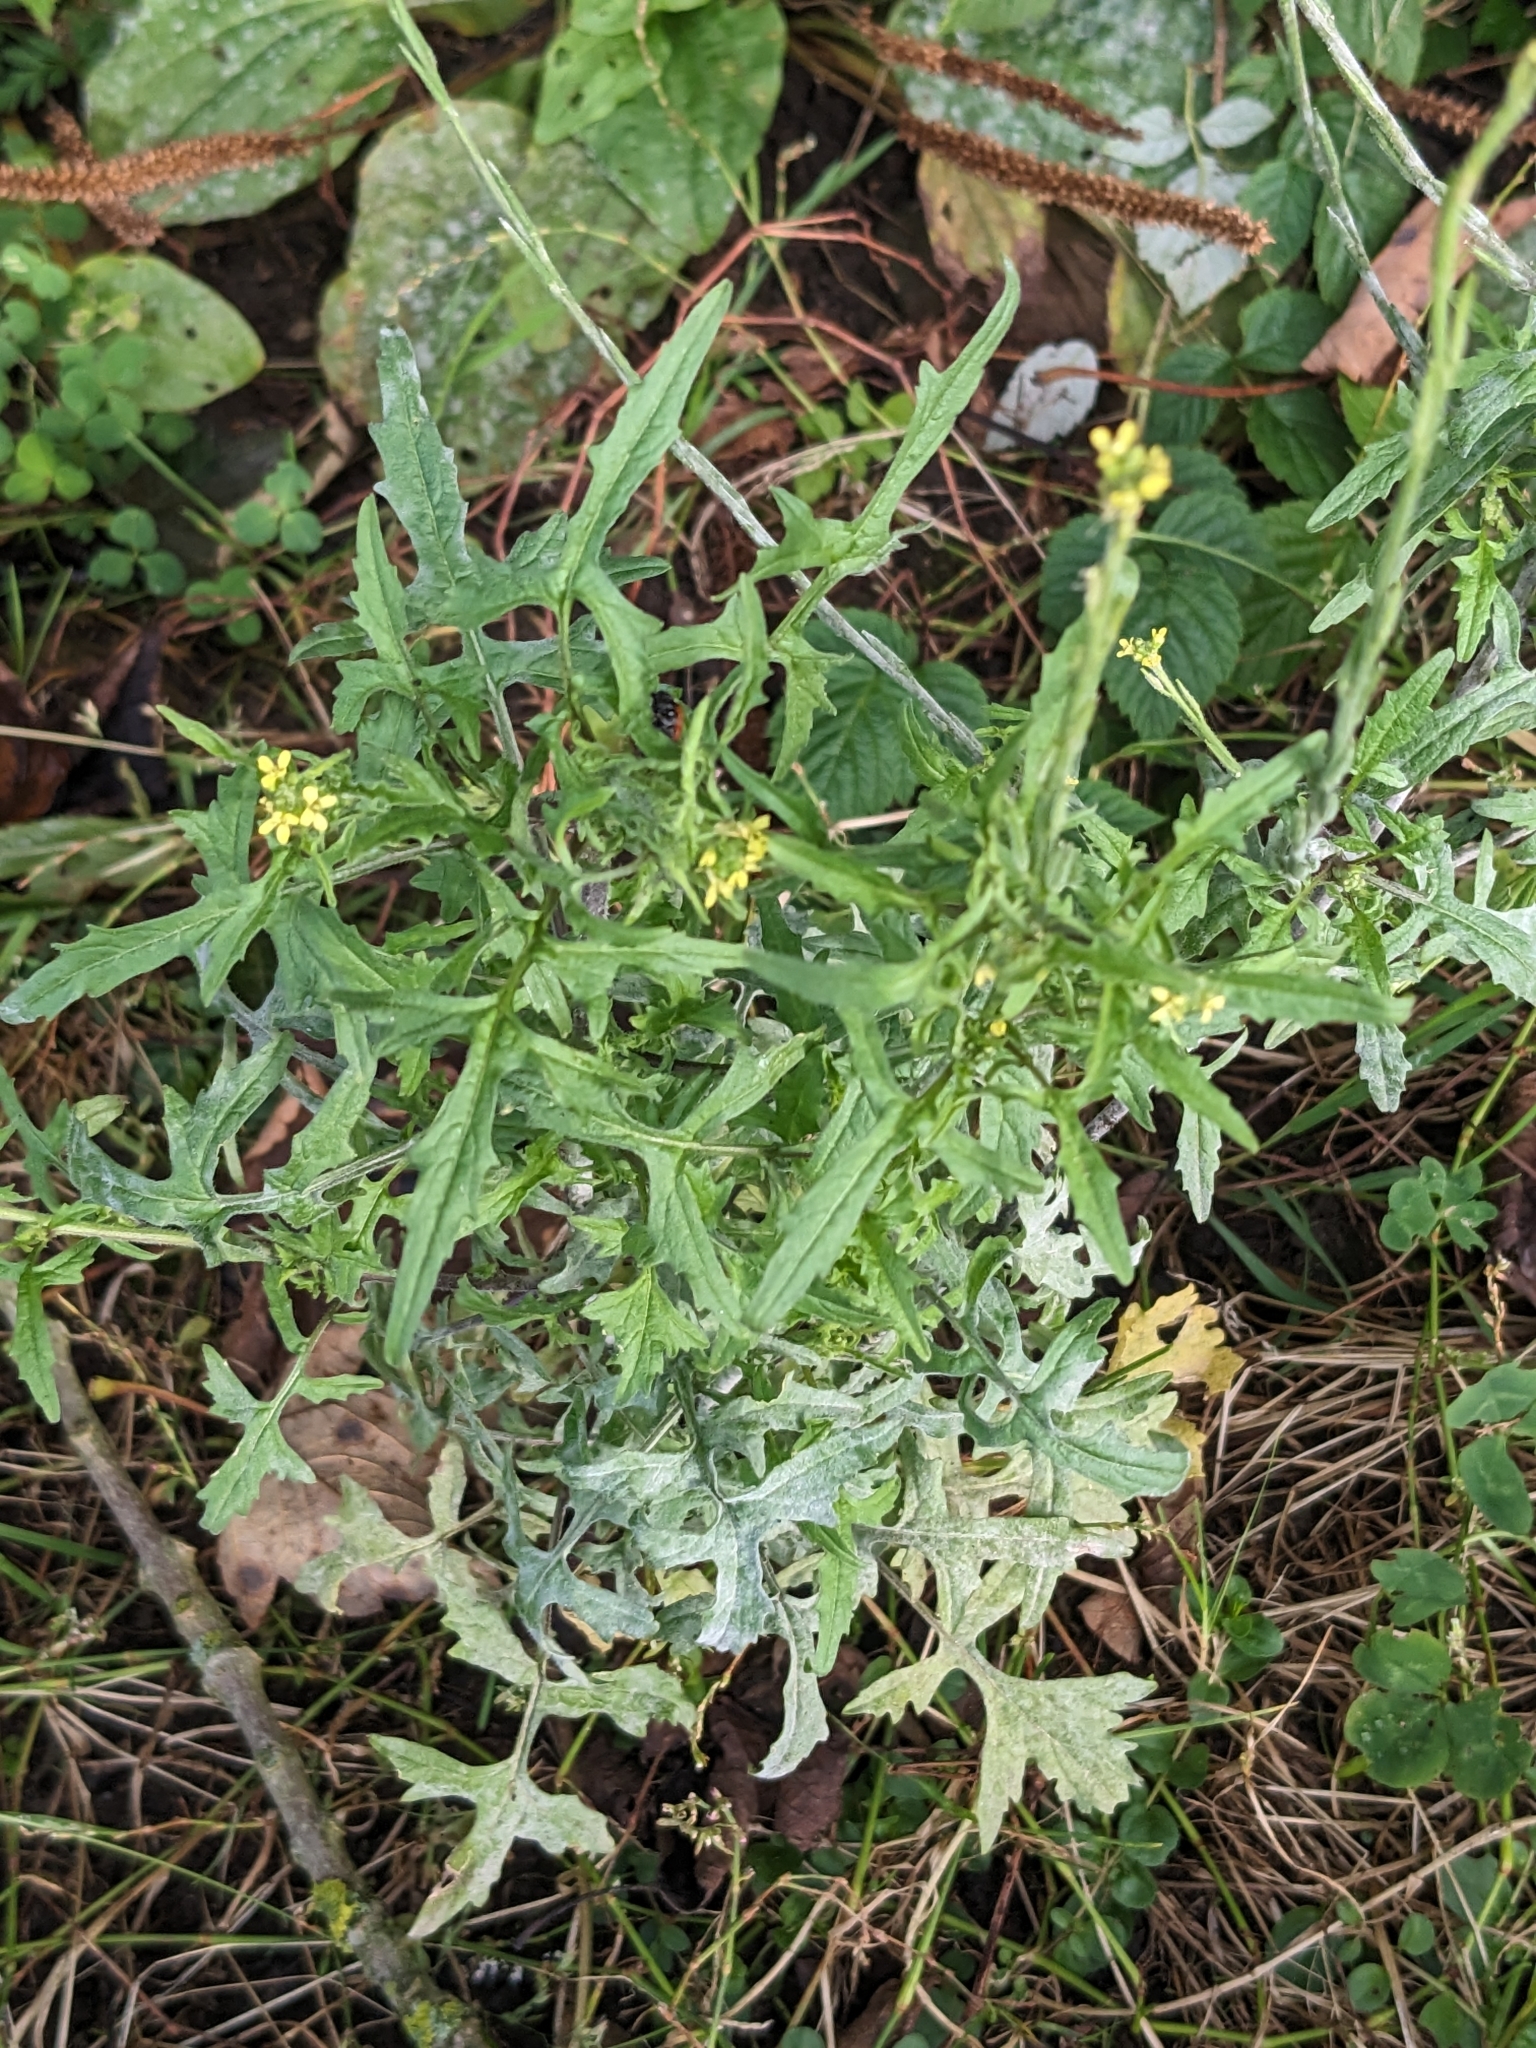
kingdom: Plantae
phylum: Tracheophyta
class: Magnoliopsida
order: Brassicales
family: Brassicaceae
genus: Sisymbrium
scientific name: Sisymbrium officinale
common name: Hedge mustard
